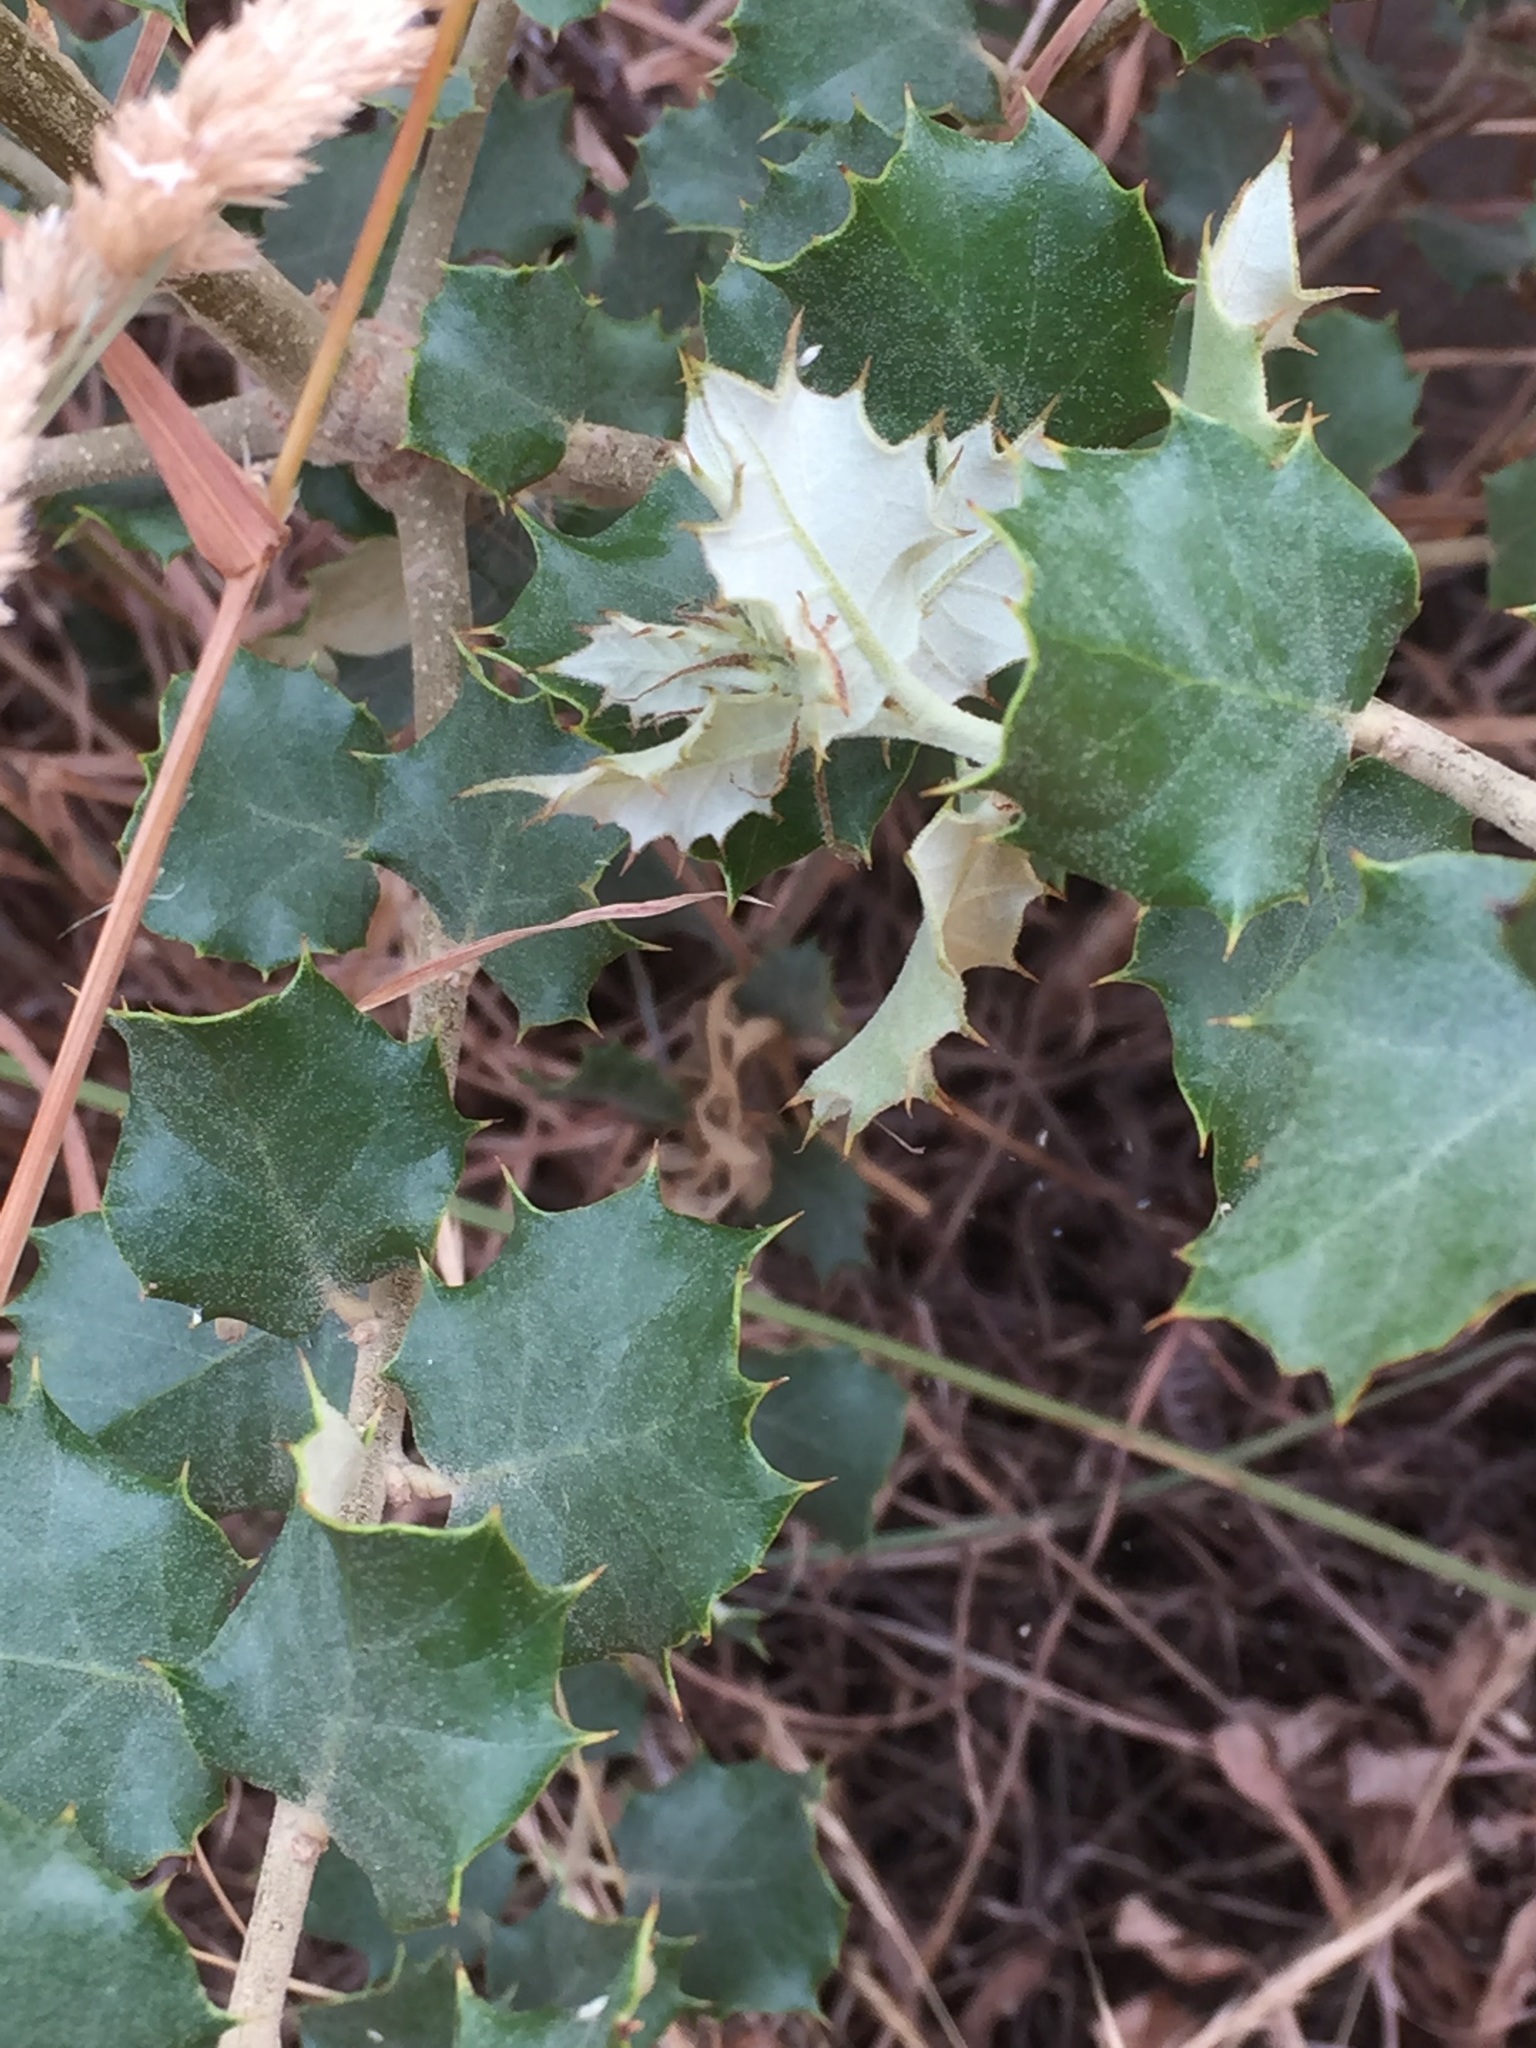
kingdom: Plantae
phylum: Tracheophyta
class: Magnoliopsida
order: Fagales
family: Fagaceae
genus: Quercus
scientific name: Quercus rotundifolia
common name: Holm oak
